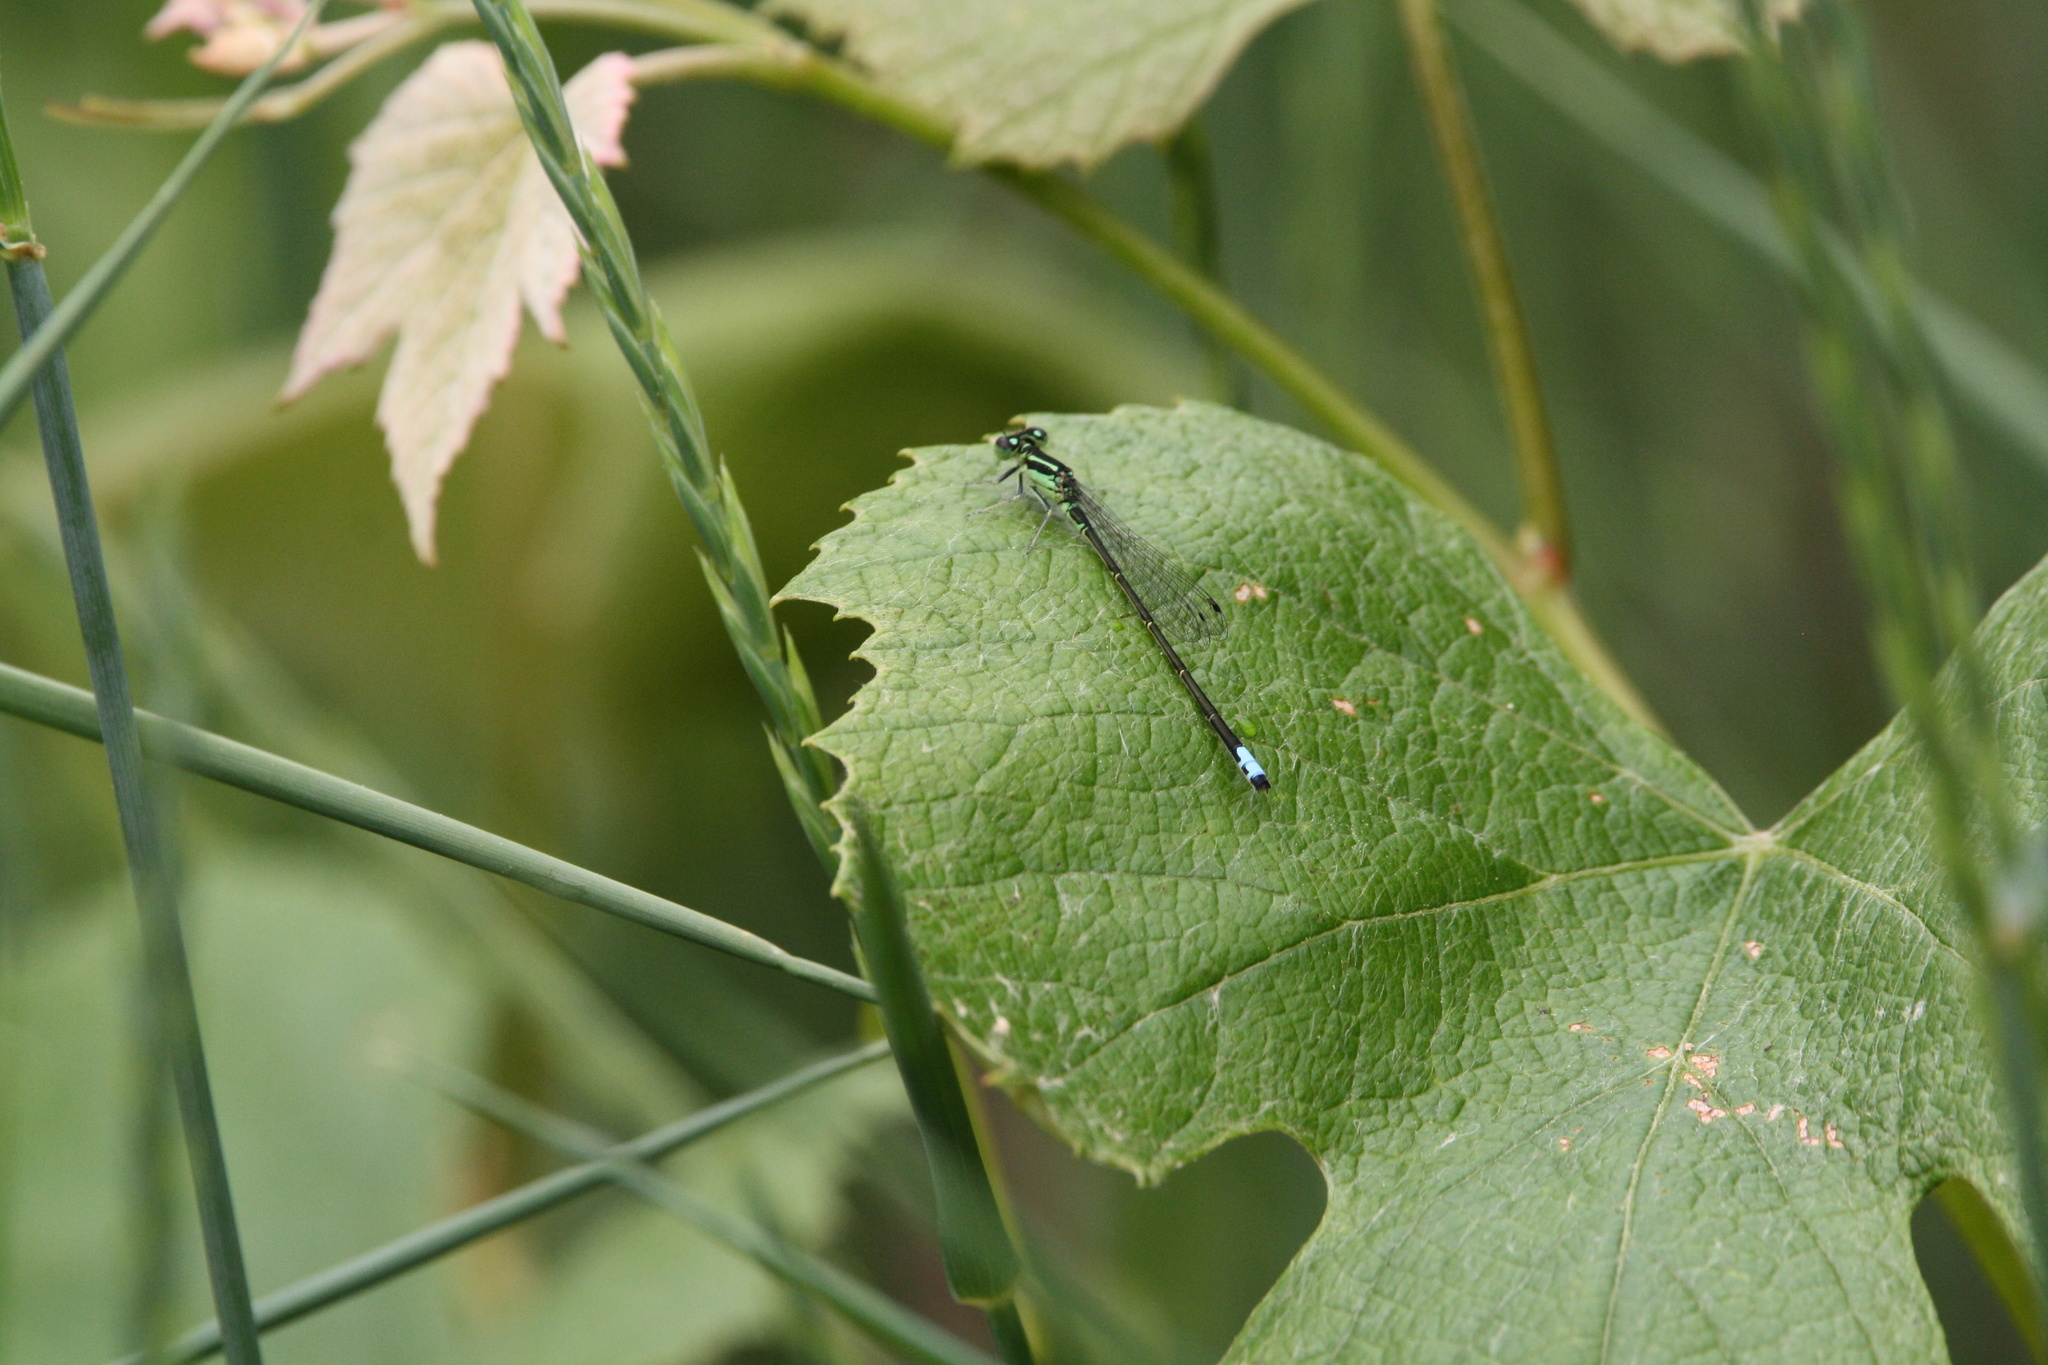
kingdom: Animalia
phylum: Arthropoda
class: Insecta
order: Odonata
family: Coenagrionidae
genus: Ischnura
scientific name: Ischnura verticalis
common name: Eastern forktail
